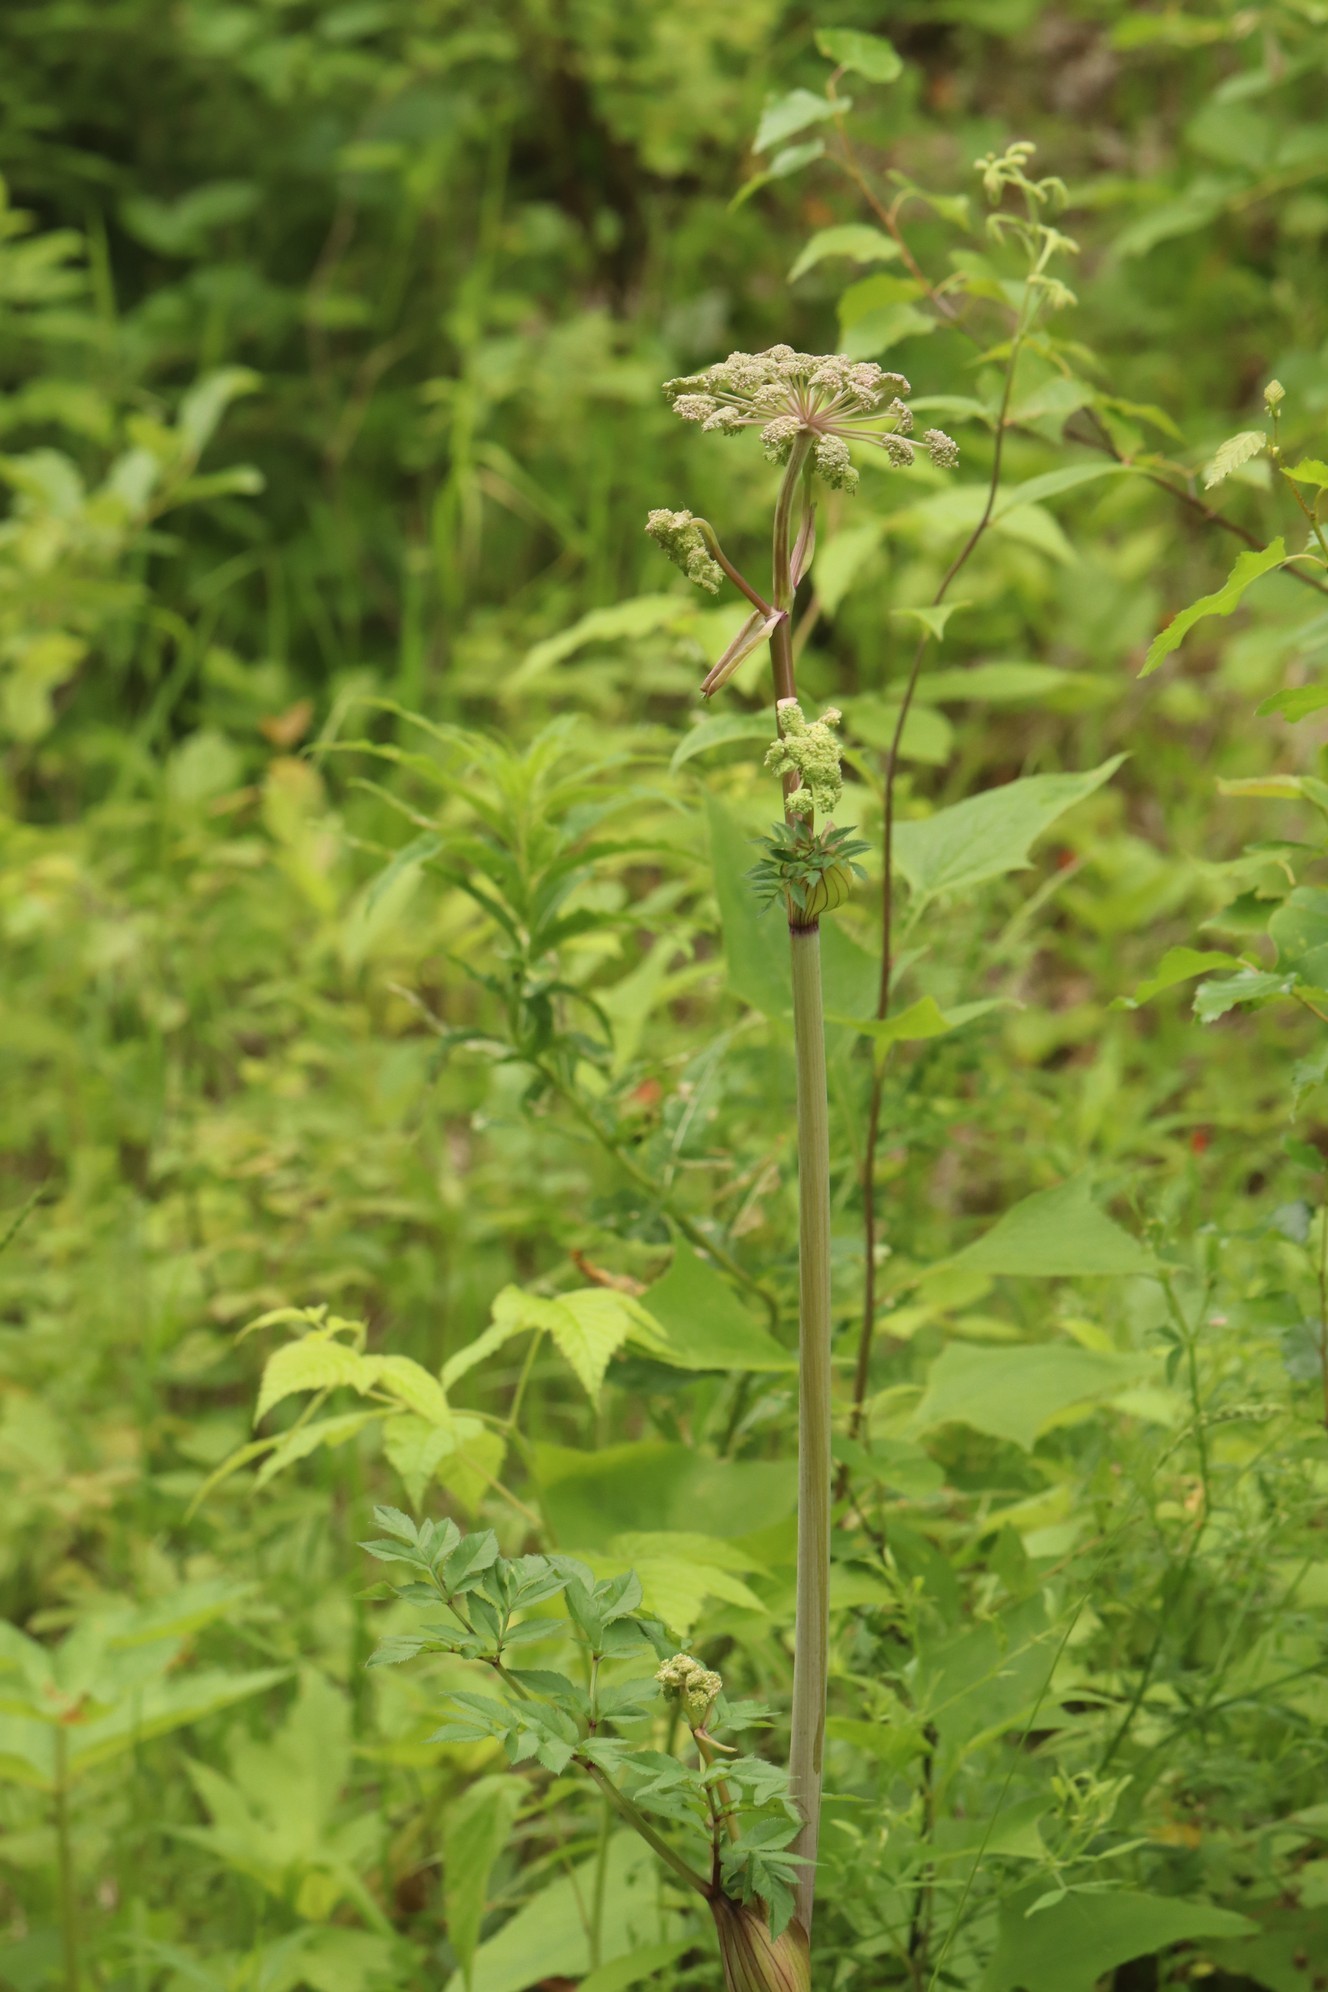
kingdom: Plantae
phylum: Tracheophyta
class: Magnoliopsida
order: Apiales
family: Apiaceae
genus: Angelica
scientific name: Angelica sylvestris
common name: Wild angelica
